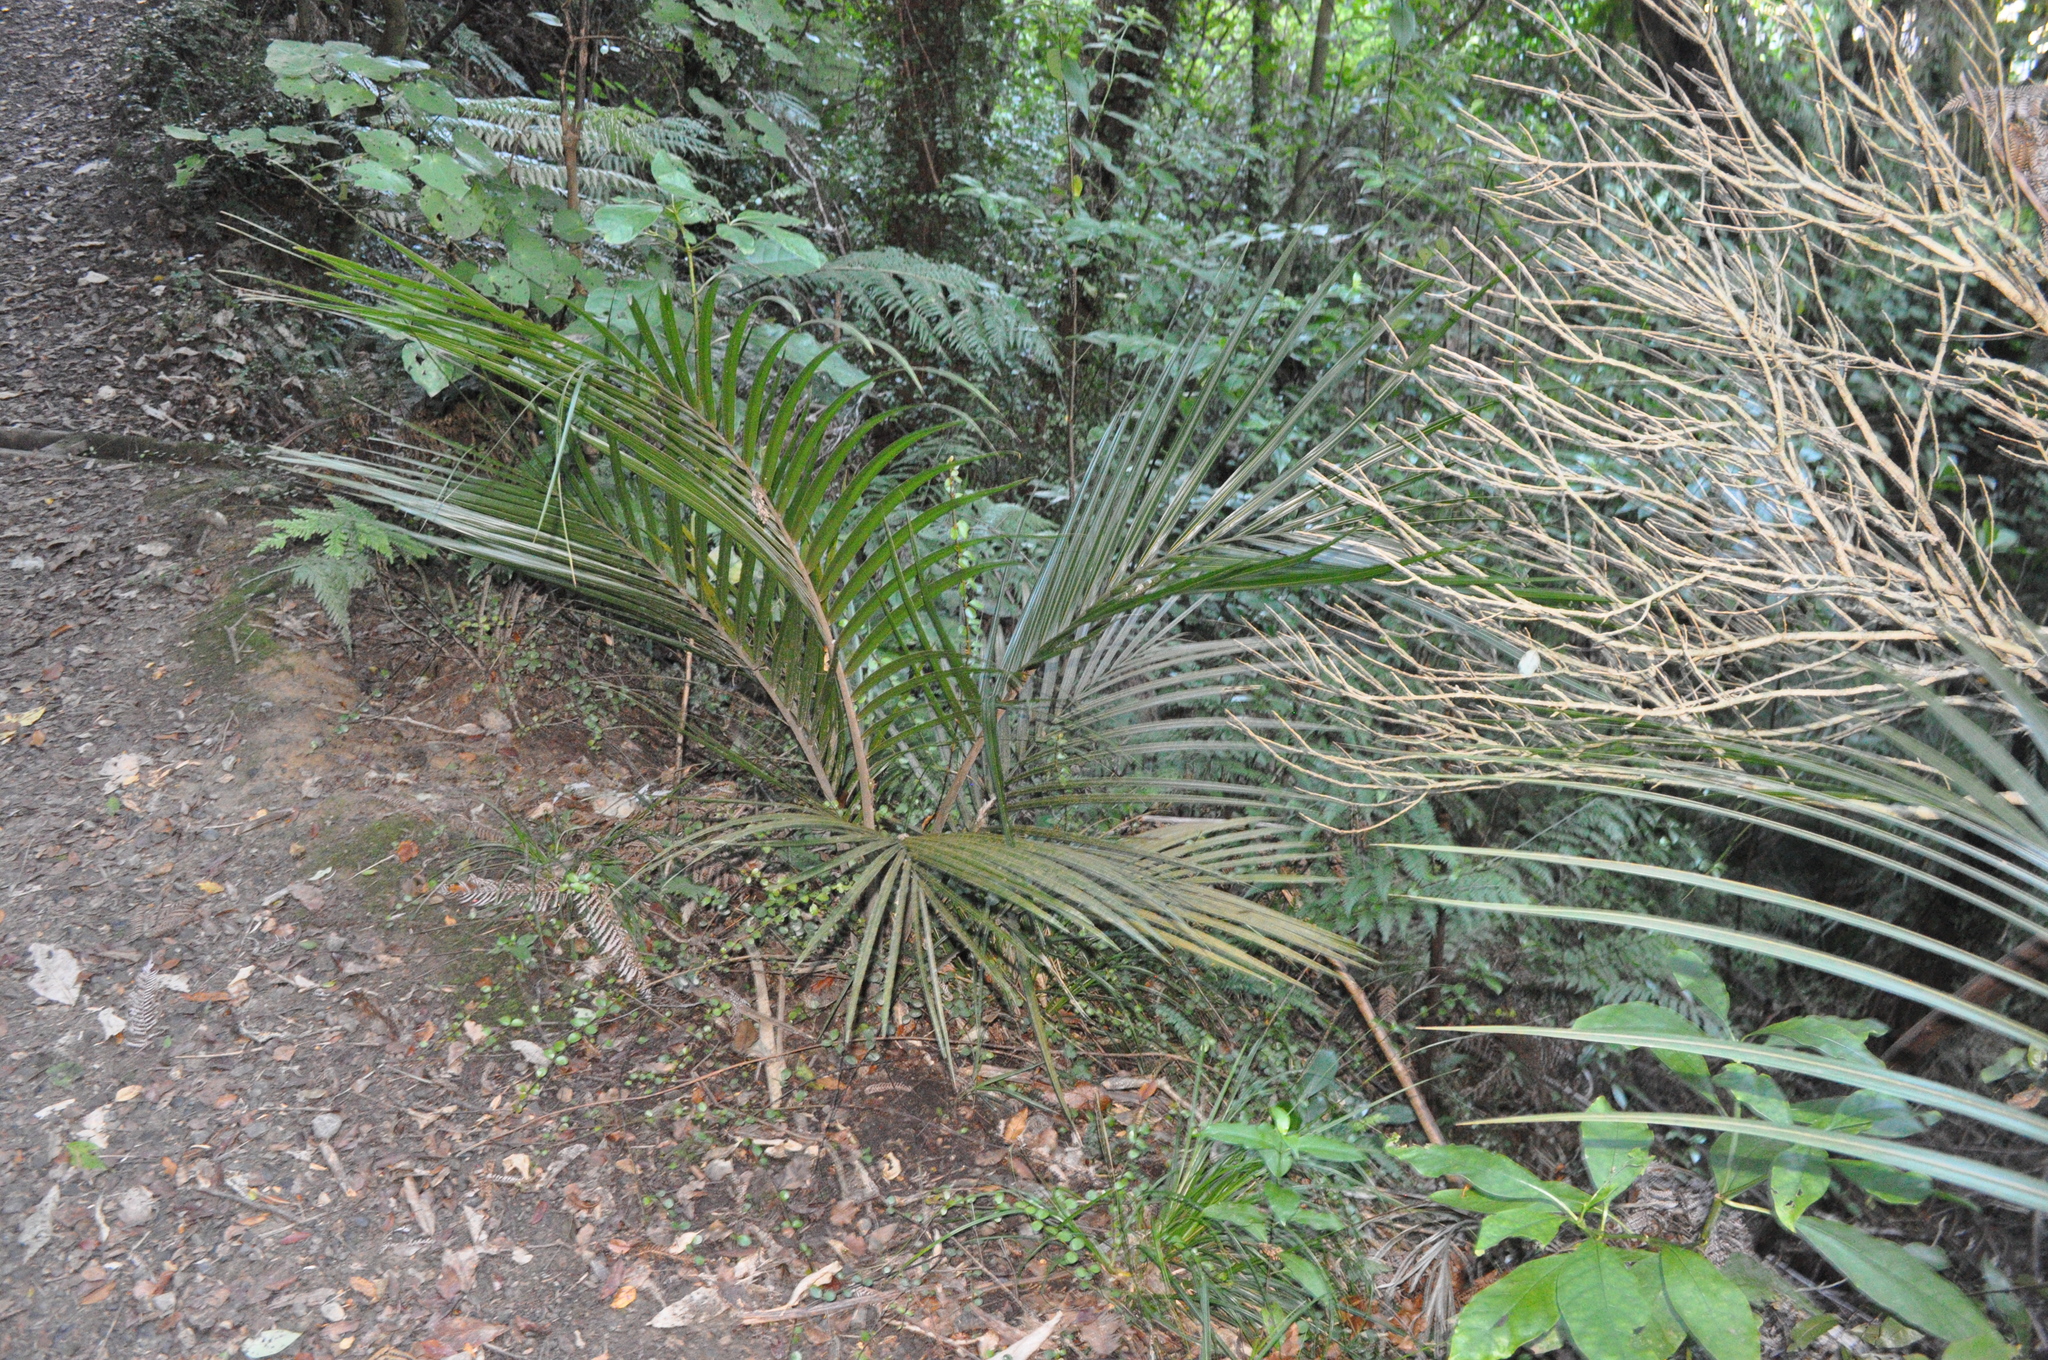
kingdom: Plantae
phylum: Tracheophyta
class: Liliopsida
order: Arecales
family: Arecaceae
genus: Rhopalostylis
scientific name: Rhopalostylis sapida
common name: Feather-duster palm
